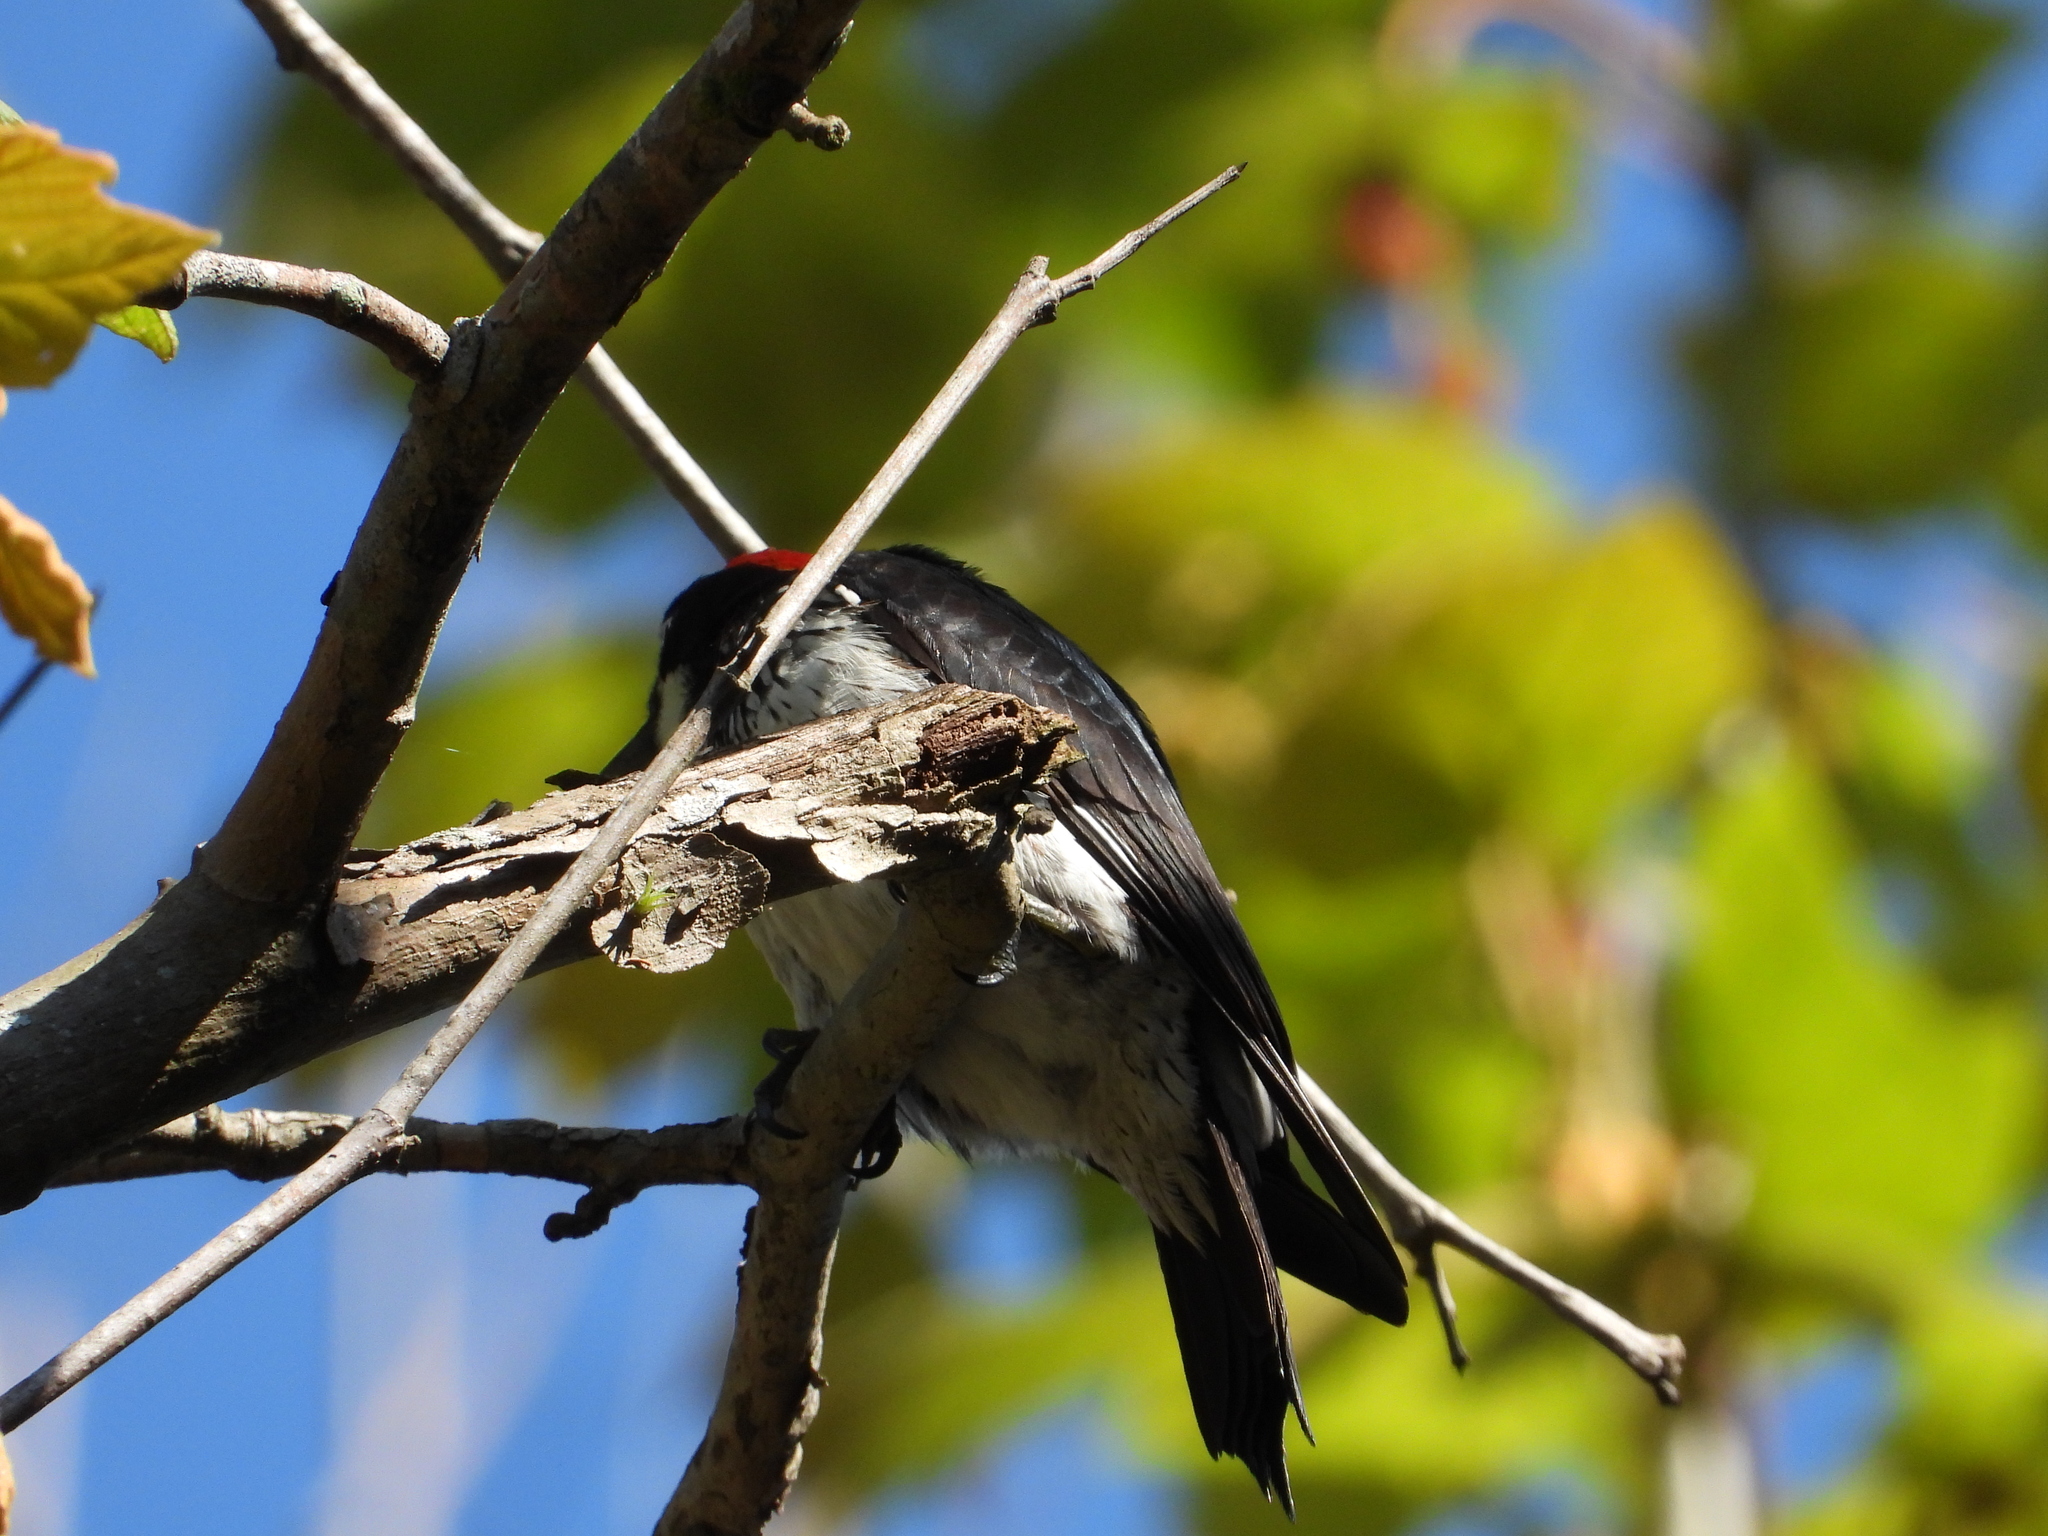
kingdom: Animalia
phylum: Chordata
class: Aves
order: Piciformes
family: Picidae
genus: Melanerpes
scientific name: Melanerpes formicivorus
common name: Acorn woodpecker
